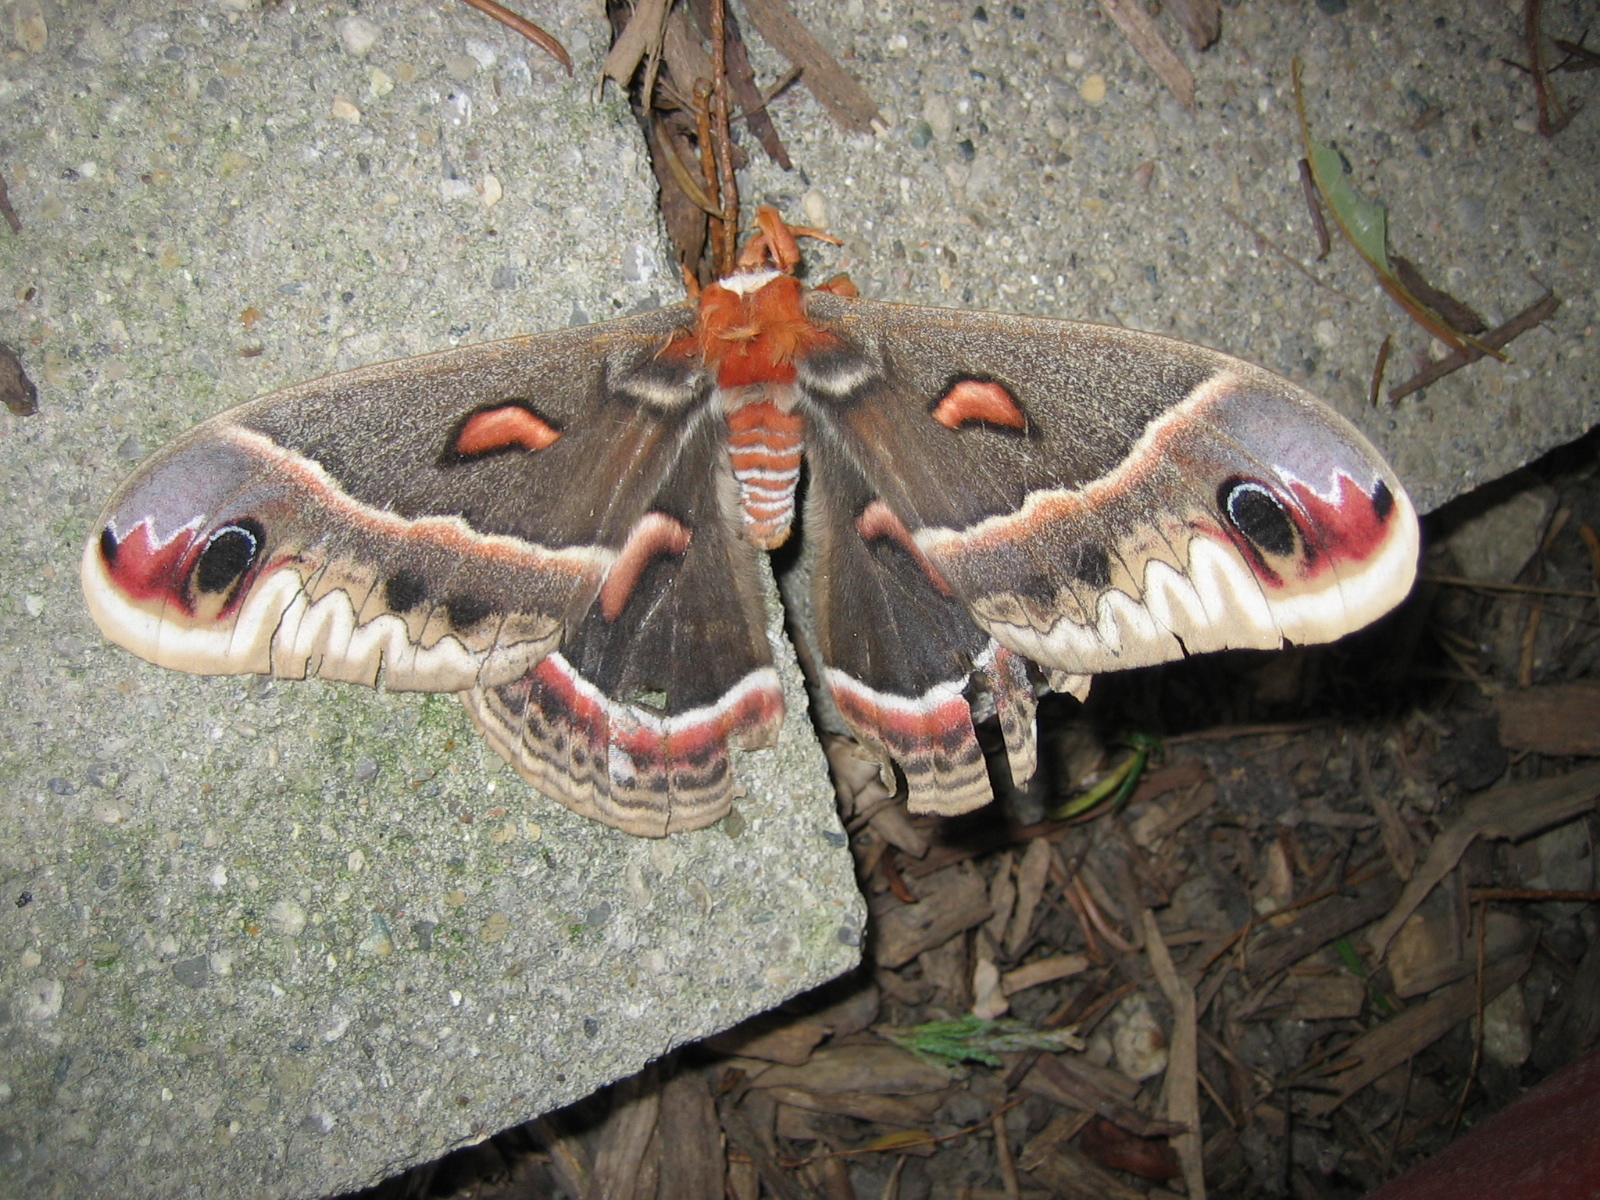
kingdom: Animalia
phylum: Arthropoda
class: Insecta
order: Lepidoptera
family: Saturniidae
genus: Hyalophora
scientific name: Hyalophora cecropia
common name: Cecropia silkmoth
